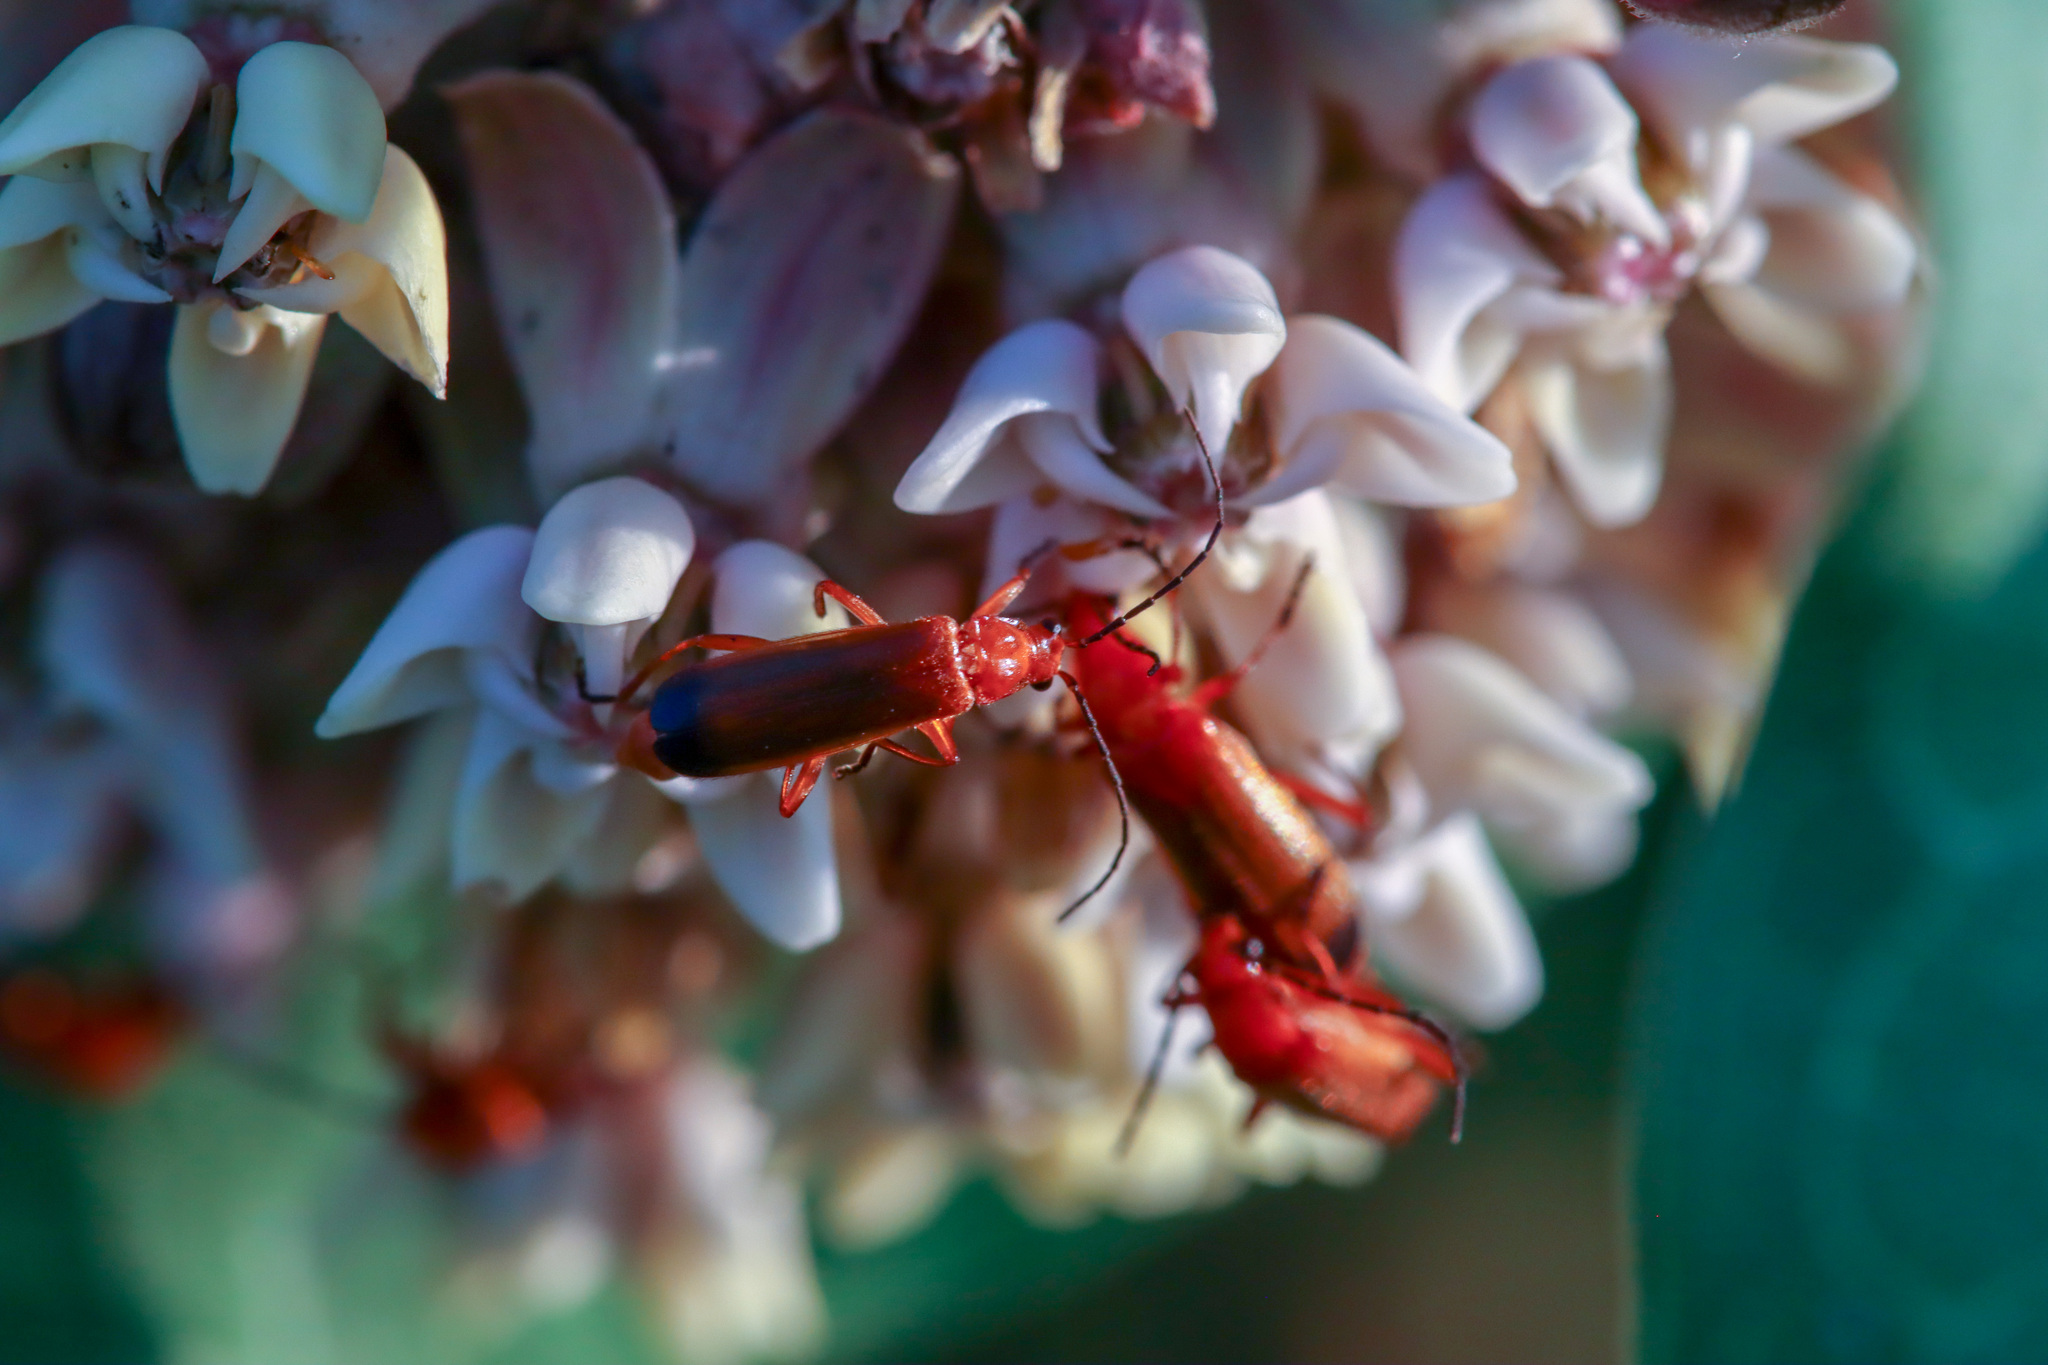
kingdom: Animalia
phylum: Arthropoda
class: Insecta
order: Coleoptera
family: Cantharidae
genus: Rhagonycha
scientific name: Rhagonycha fulva
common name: Common red soldier beetle
